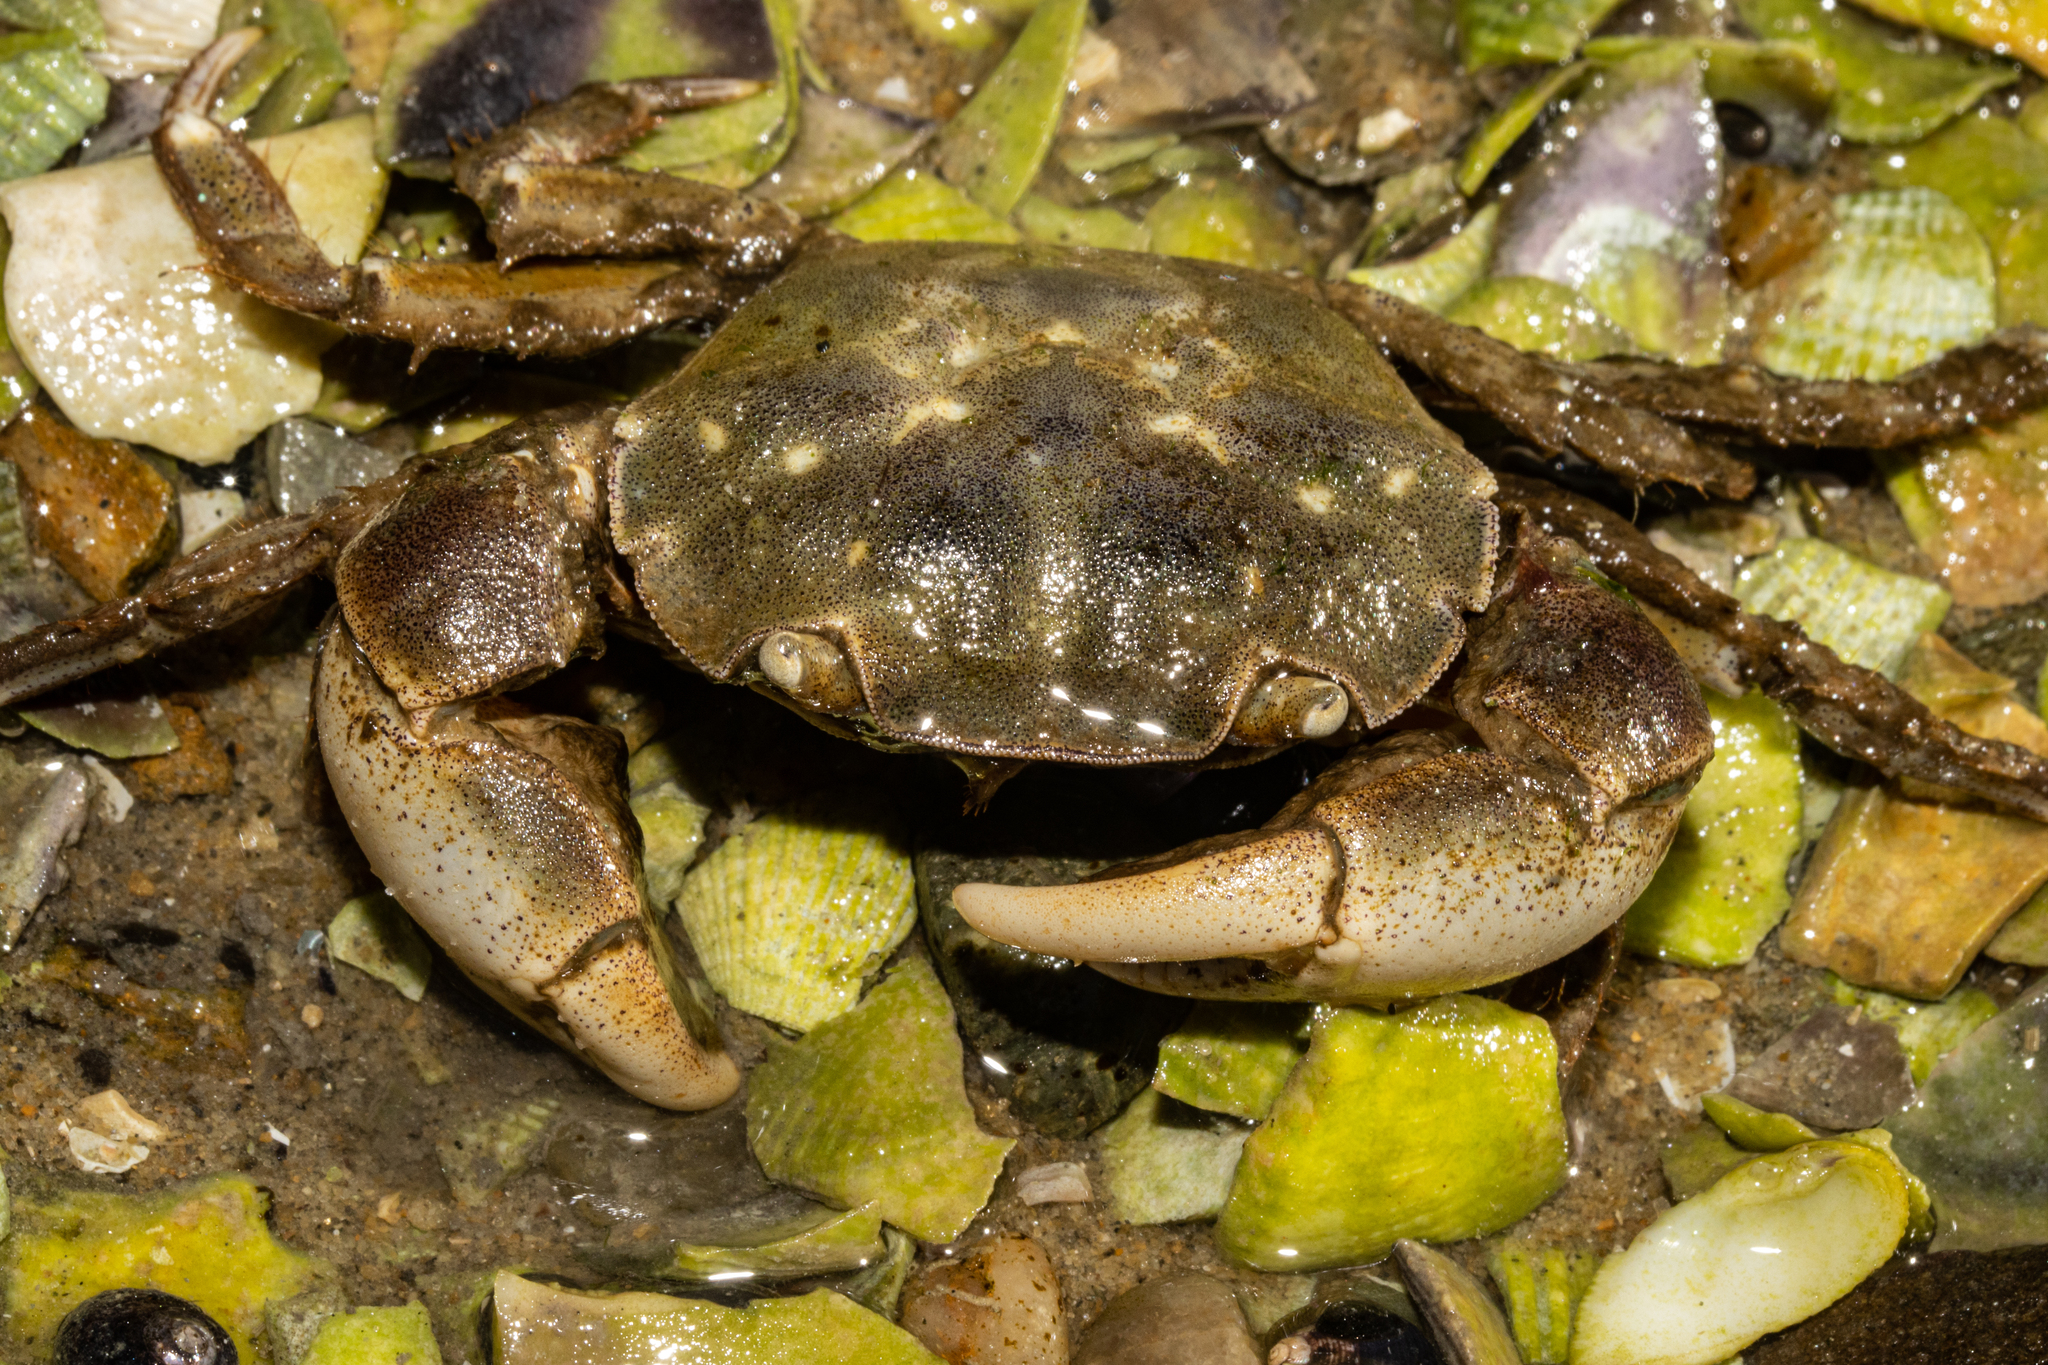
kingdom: Animalia
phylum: Arthropoda
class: Malacostraca
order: Decapoda
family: Varunidae
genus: Hemigrapsus
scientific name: Hemigrapsus crenulatus
